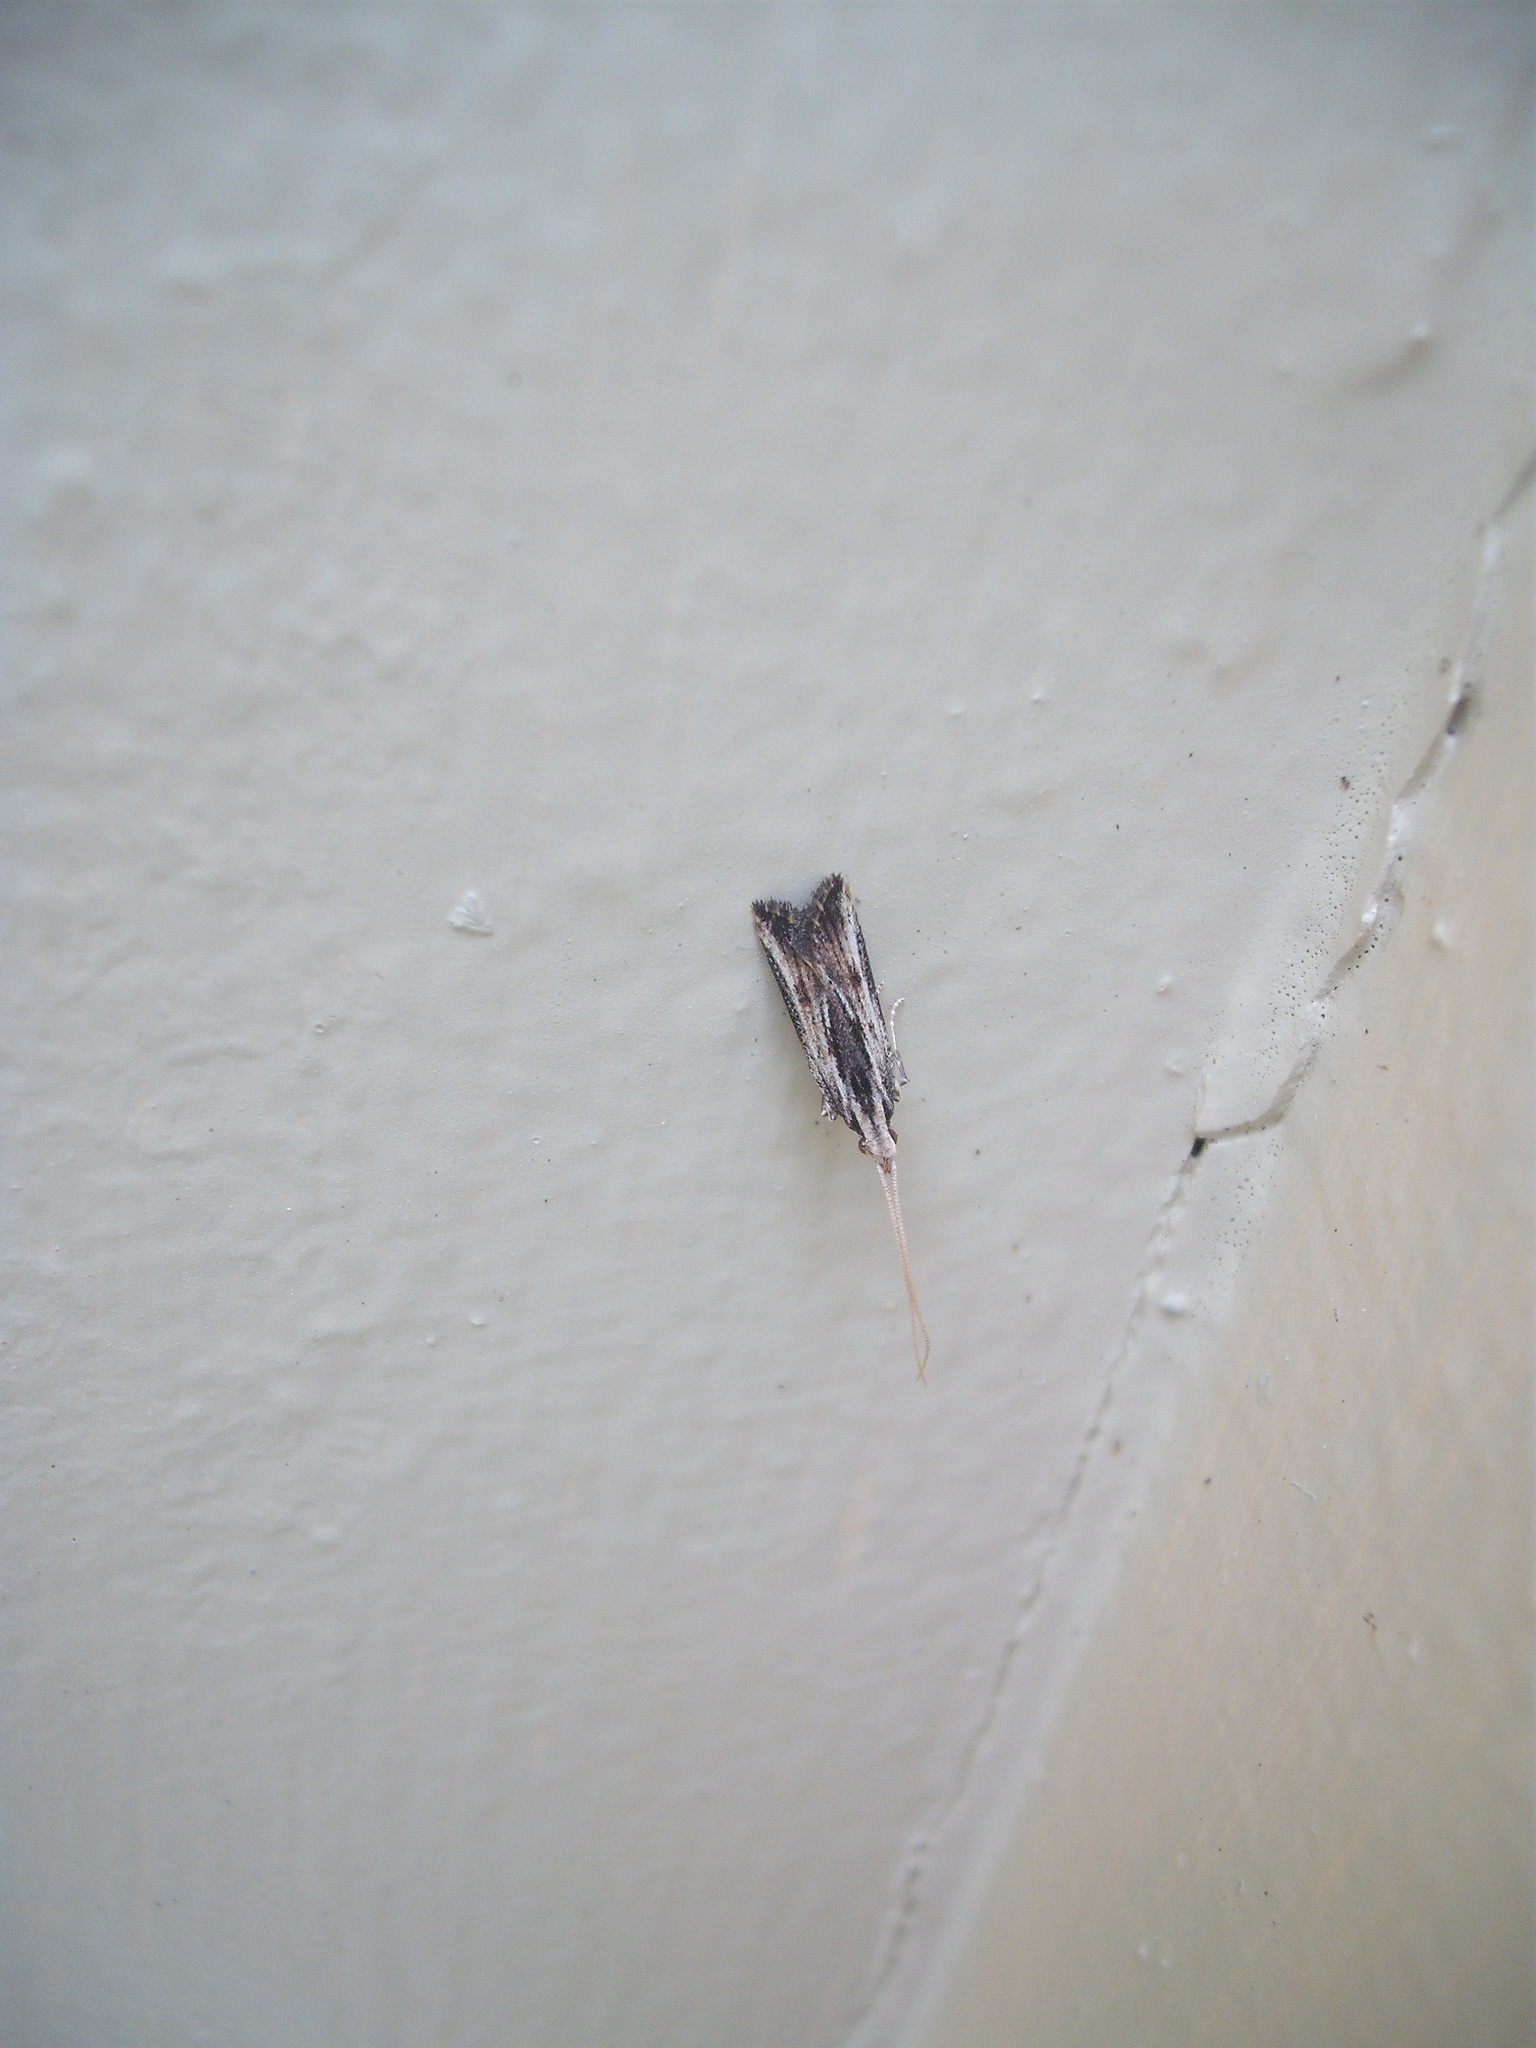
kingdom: Animalia
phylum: Arthropoda
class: Insecta
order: Lepidoptera
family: Lecithoceridae
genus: Sarisophora
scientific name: Sarisophora leucoscia
